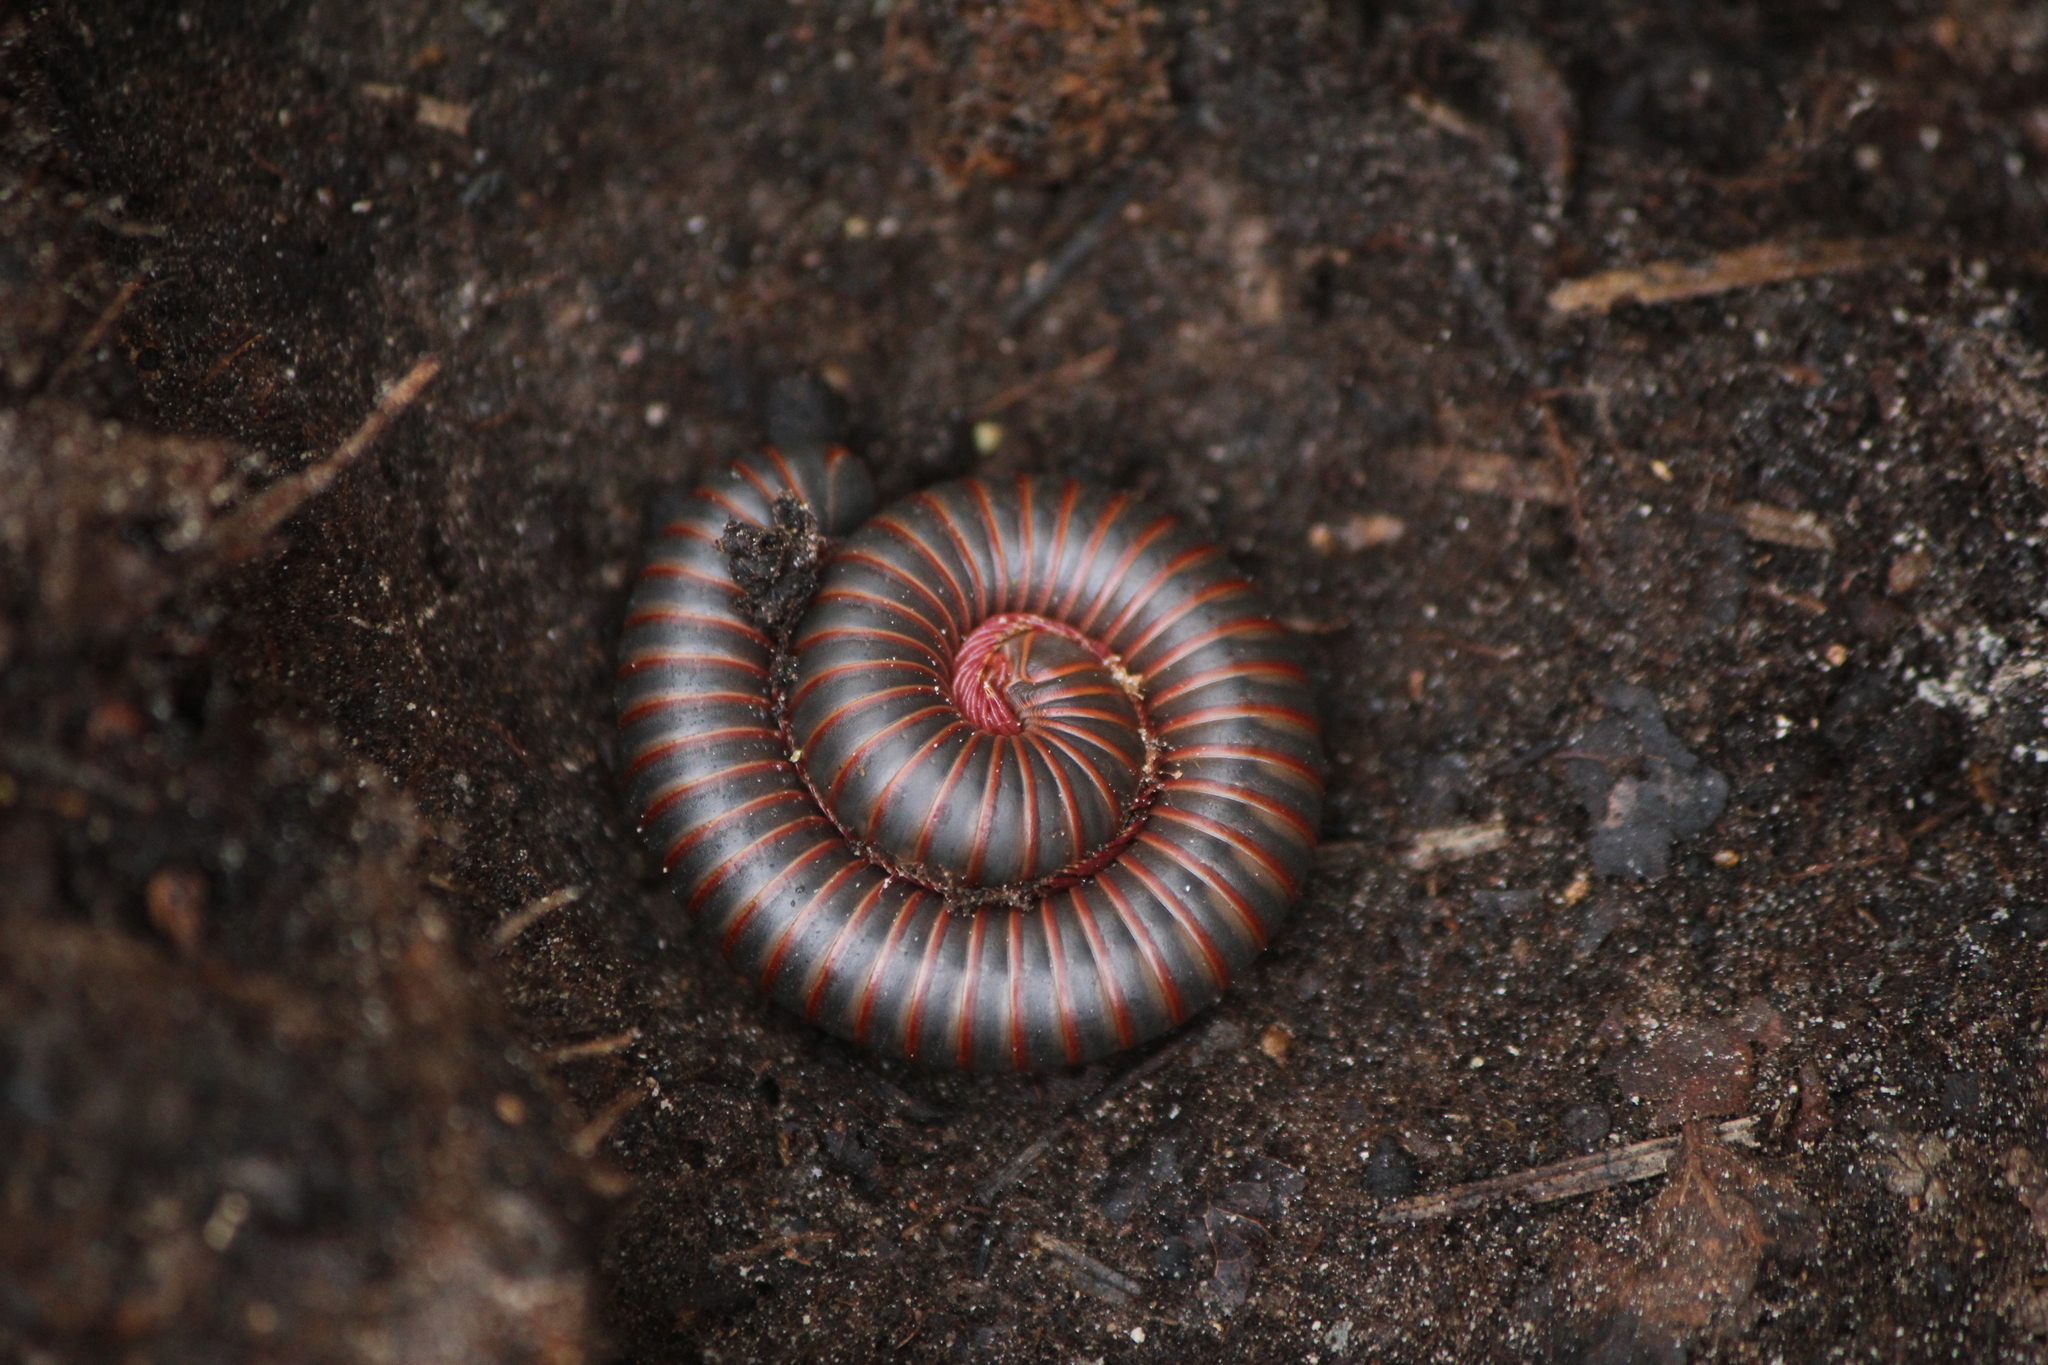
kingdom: Animalia
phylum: Arthropoda
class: Diplopoda
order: Spirobolida
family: Spirobolidae
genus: Narceus
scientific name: Narceus
